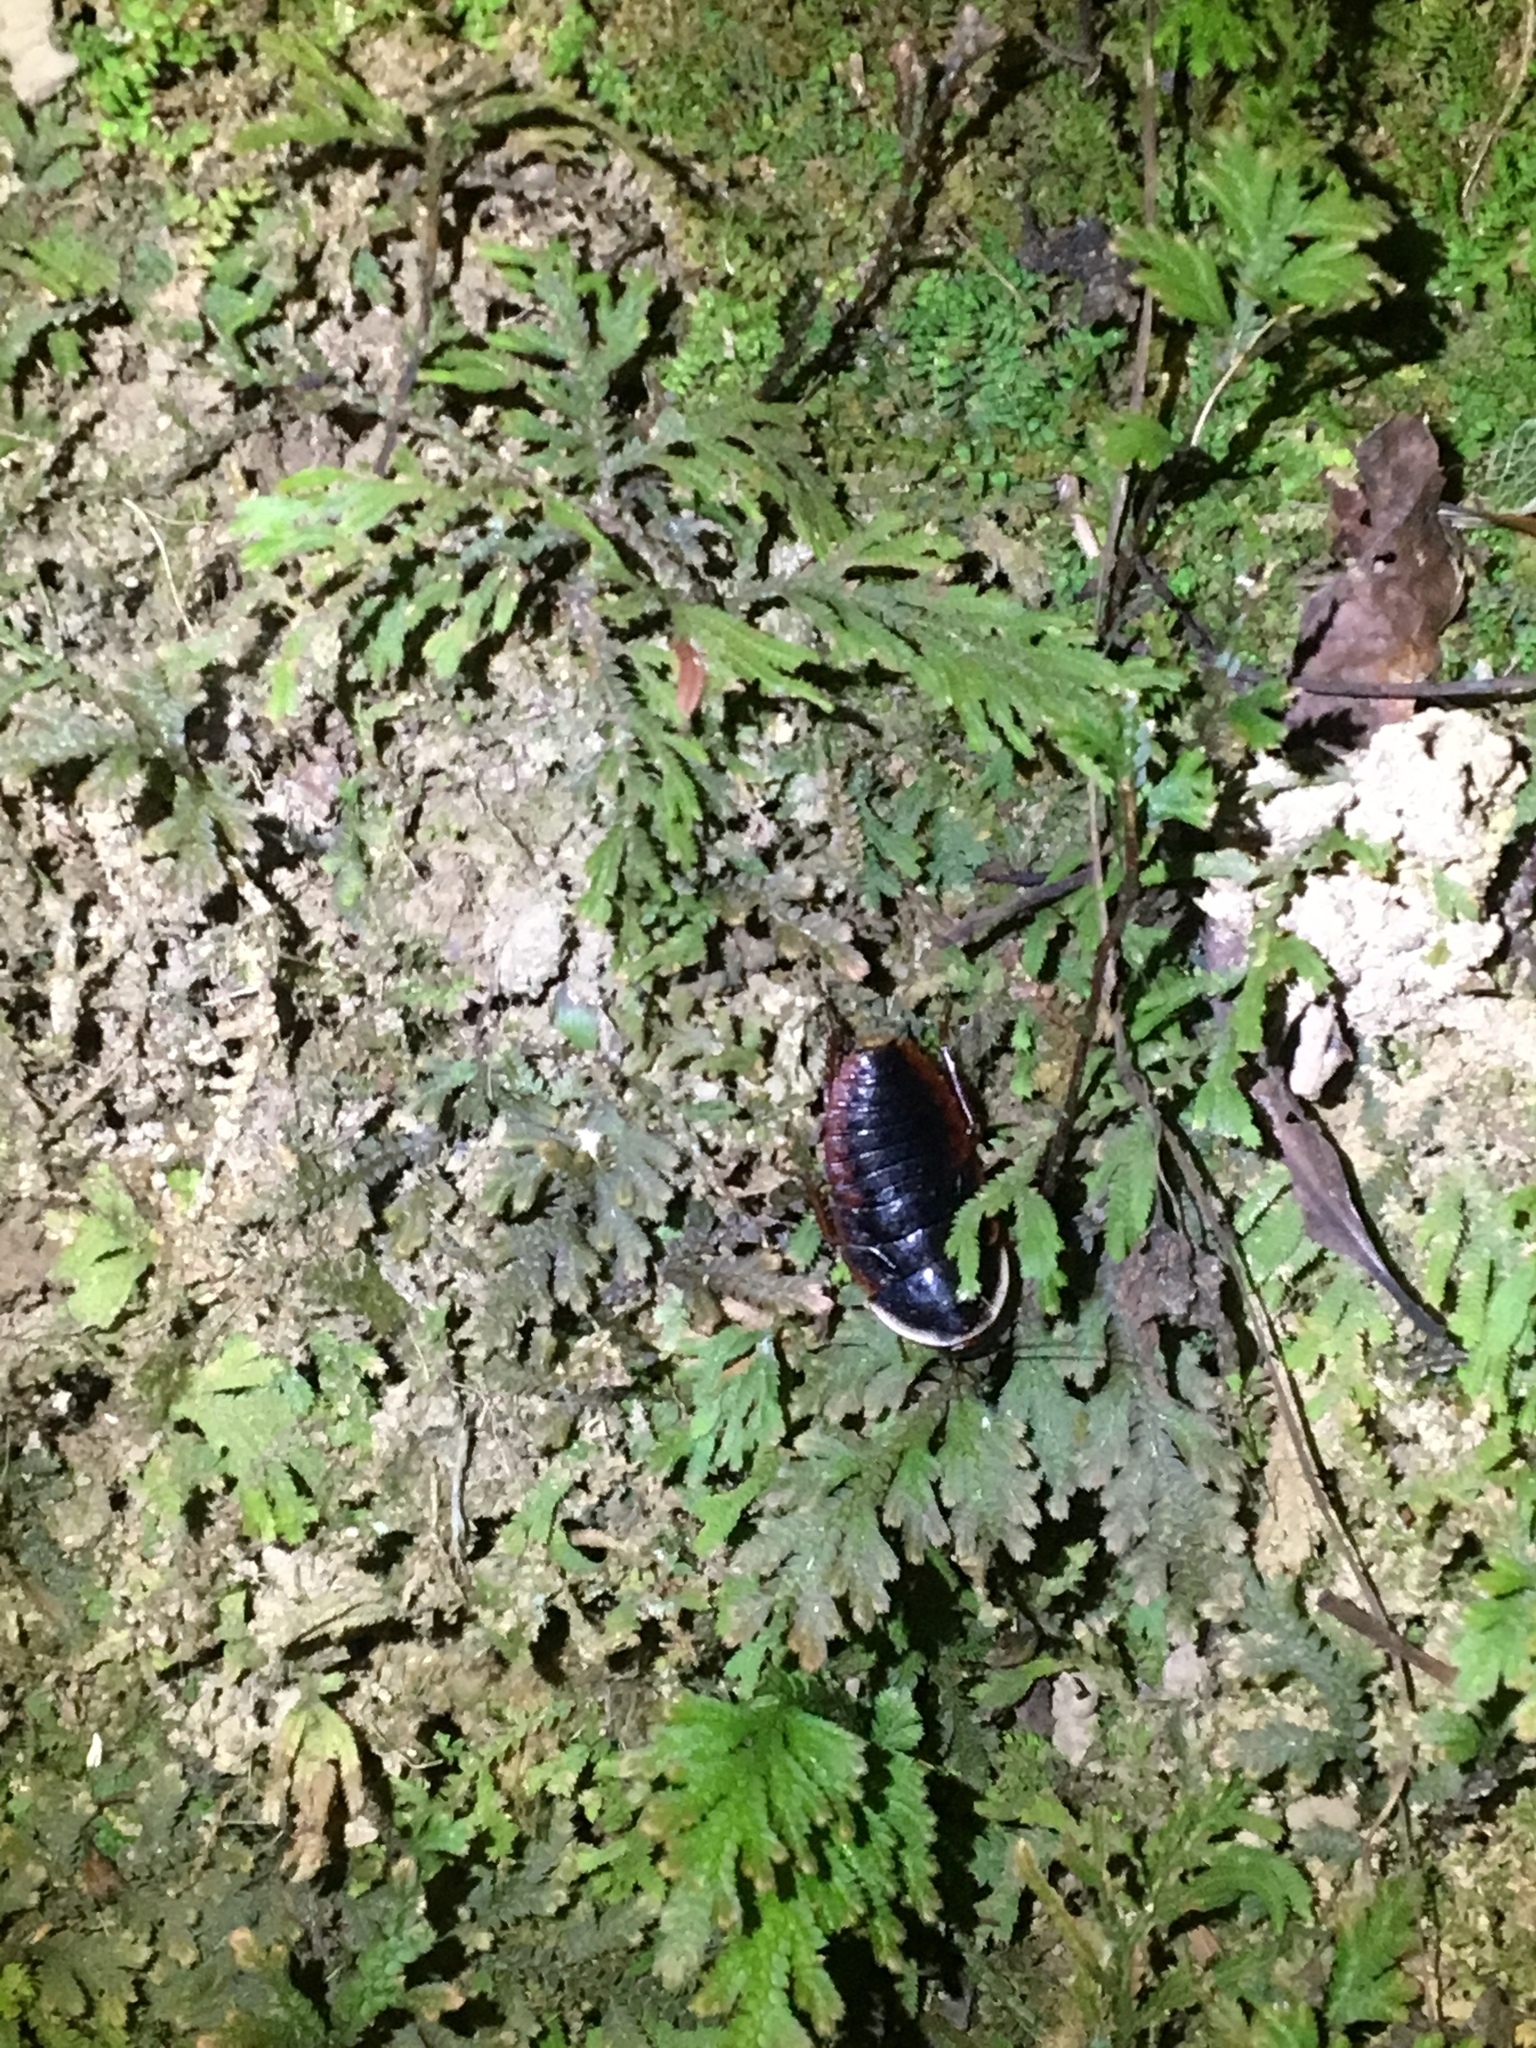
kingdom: Animalia
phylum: Arthropoda
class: Insecta
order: Blattodea
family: Blaberidae
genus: Opisthoplatia
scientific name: Opisthoplatia orientalis
